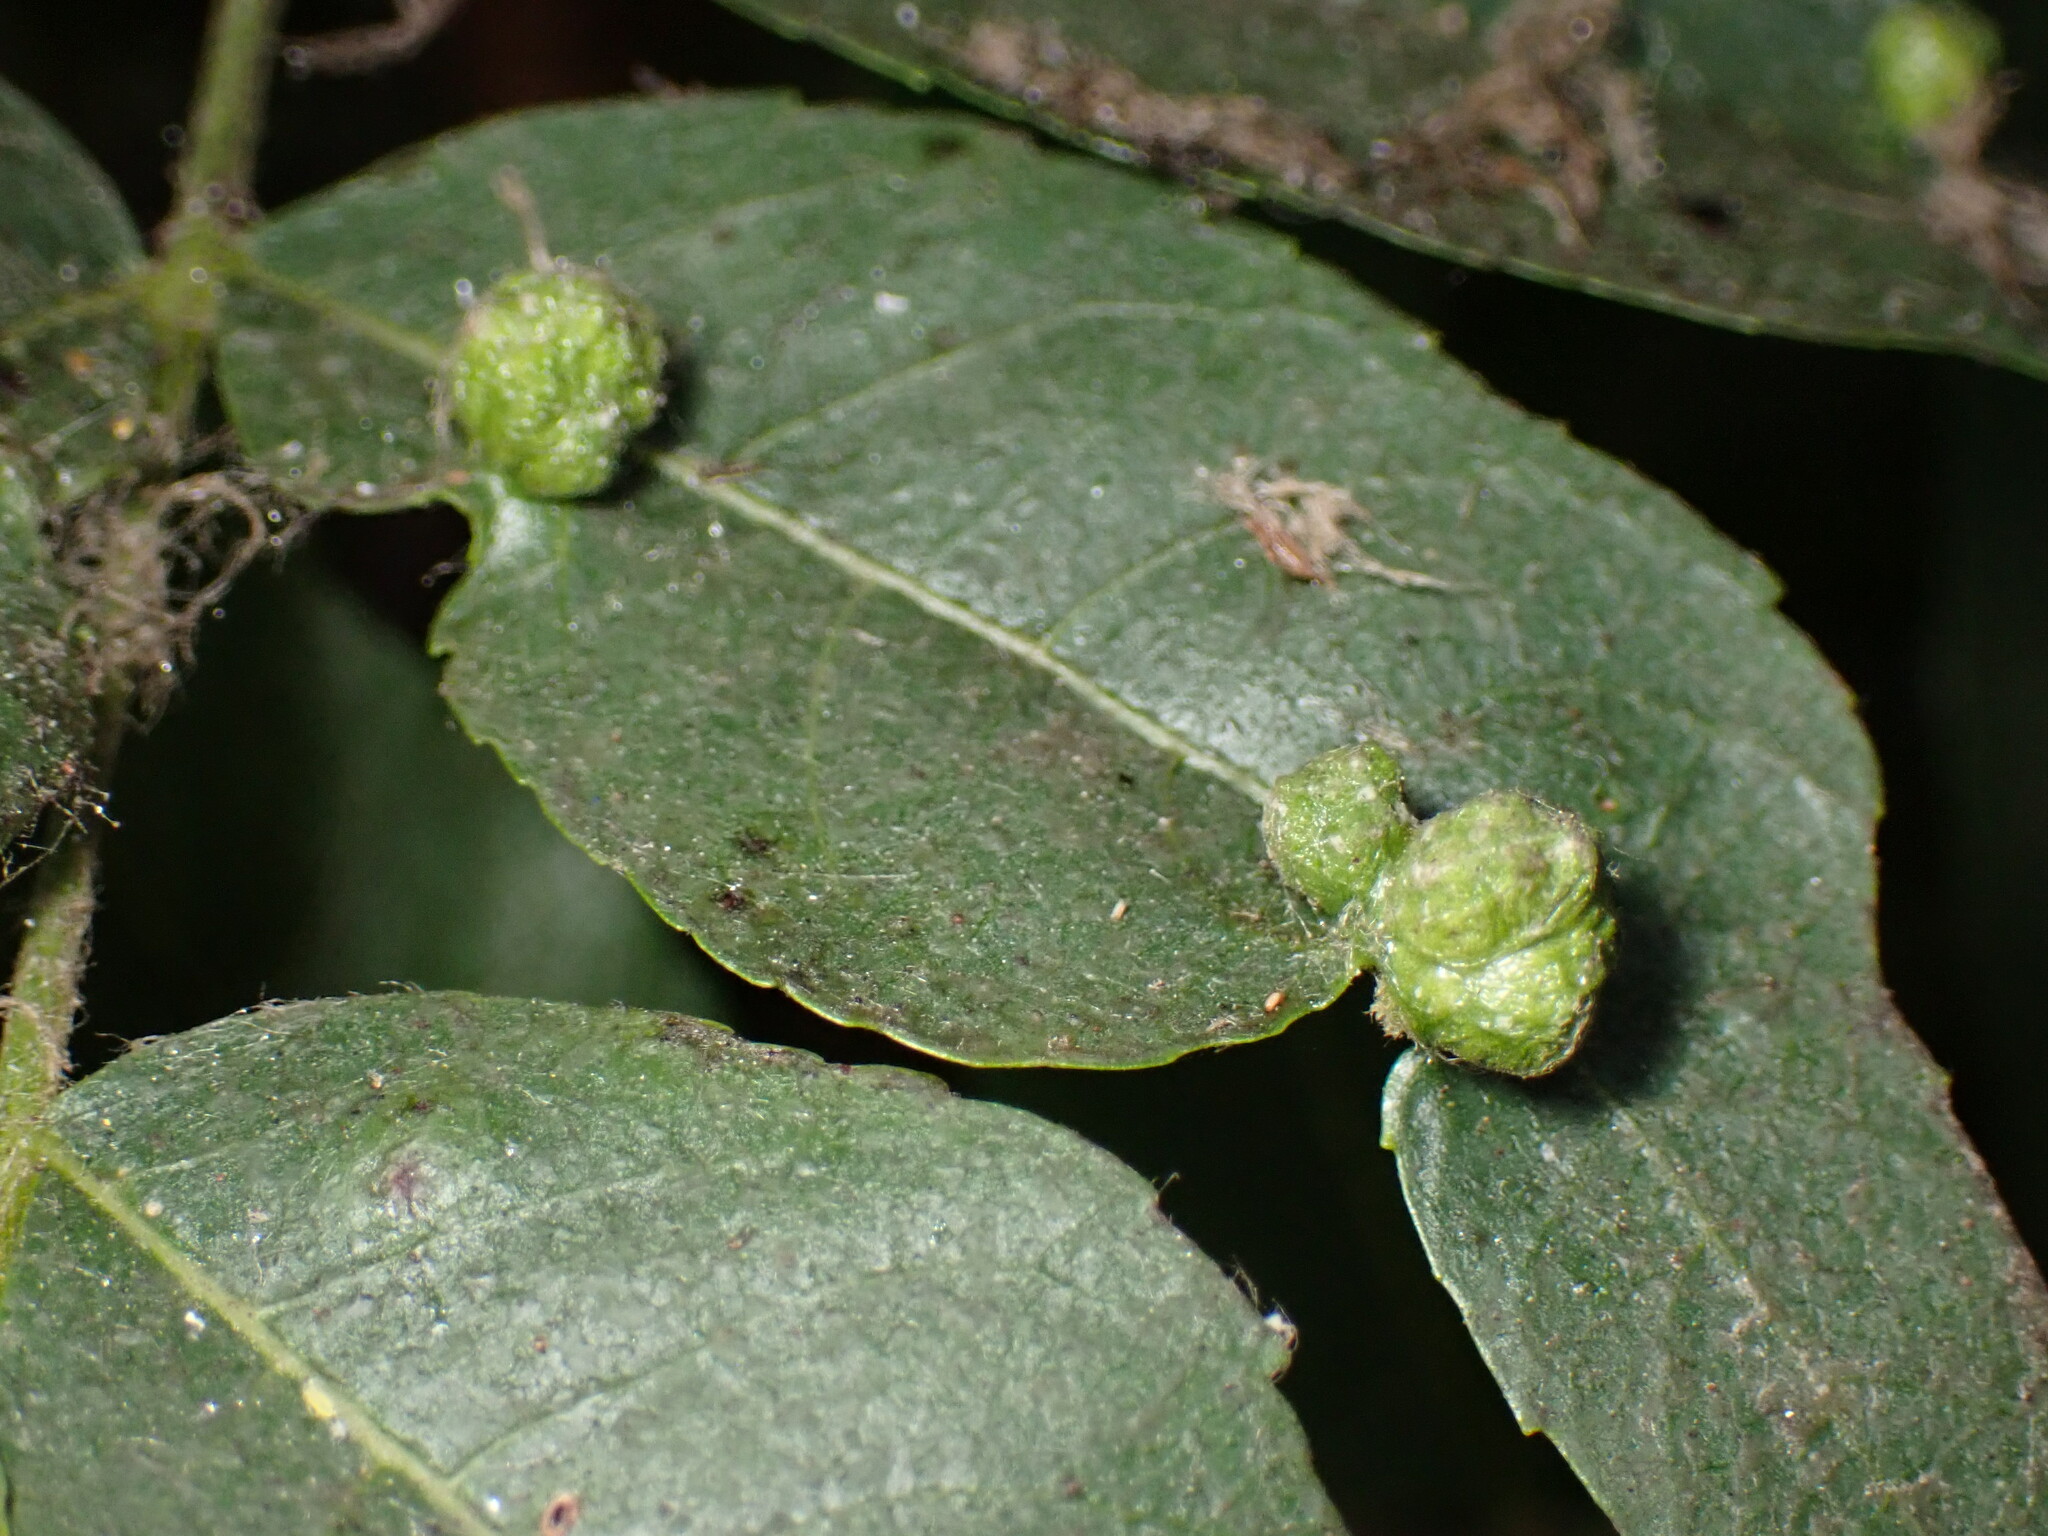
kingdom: Animalia
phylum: Arthropoda
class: Arachnida
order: Trombidiformes
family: Eriophyidae
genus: Aceria
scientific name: Aceria brachytarsus
